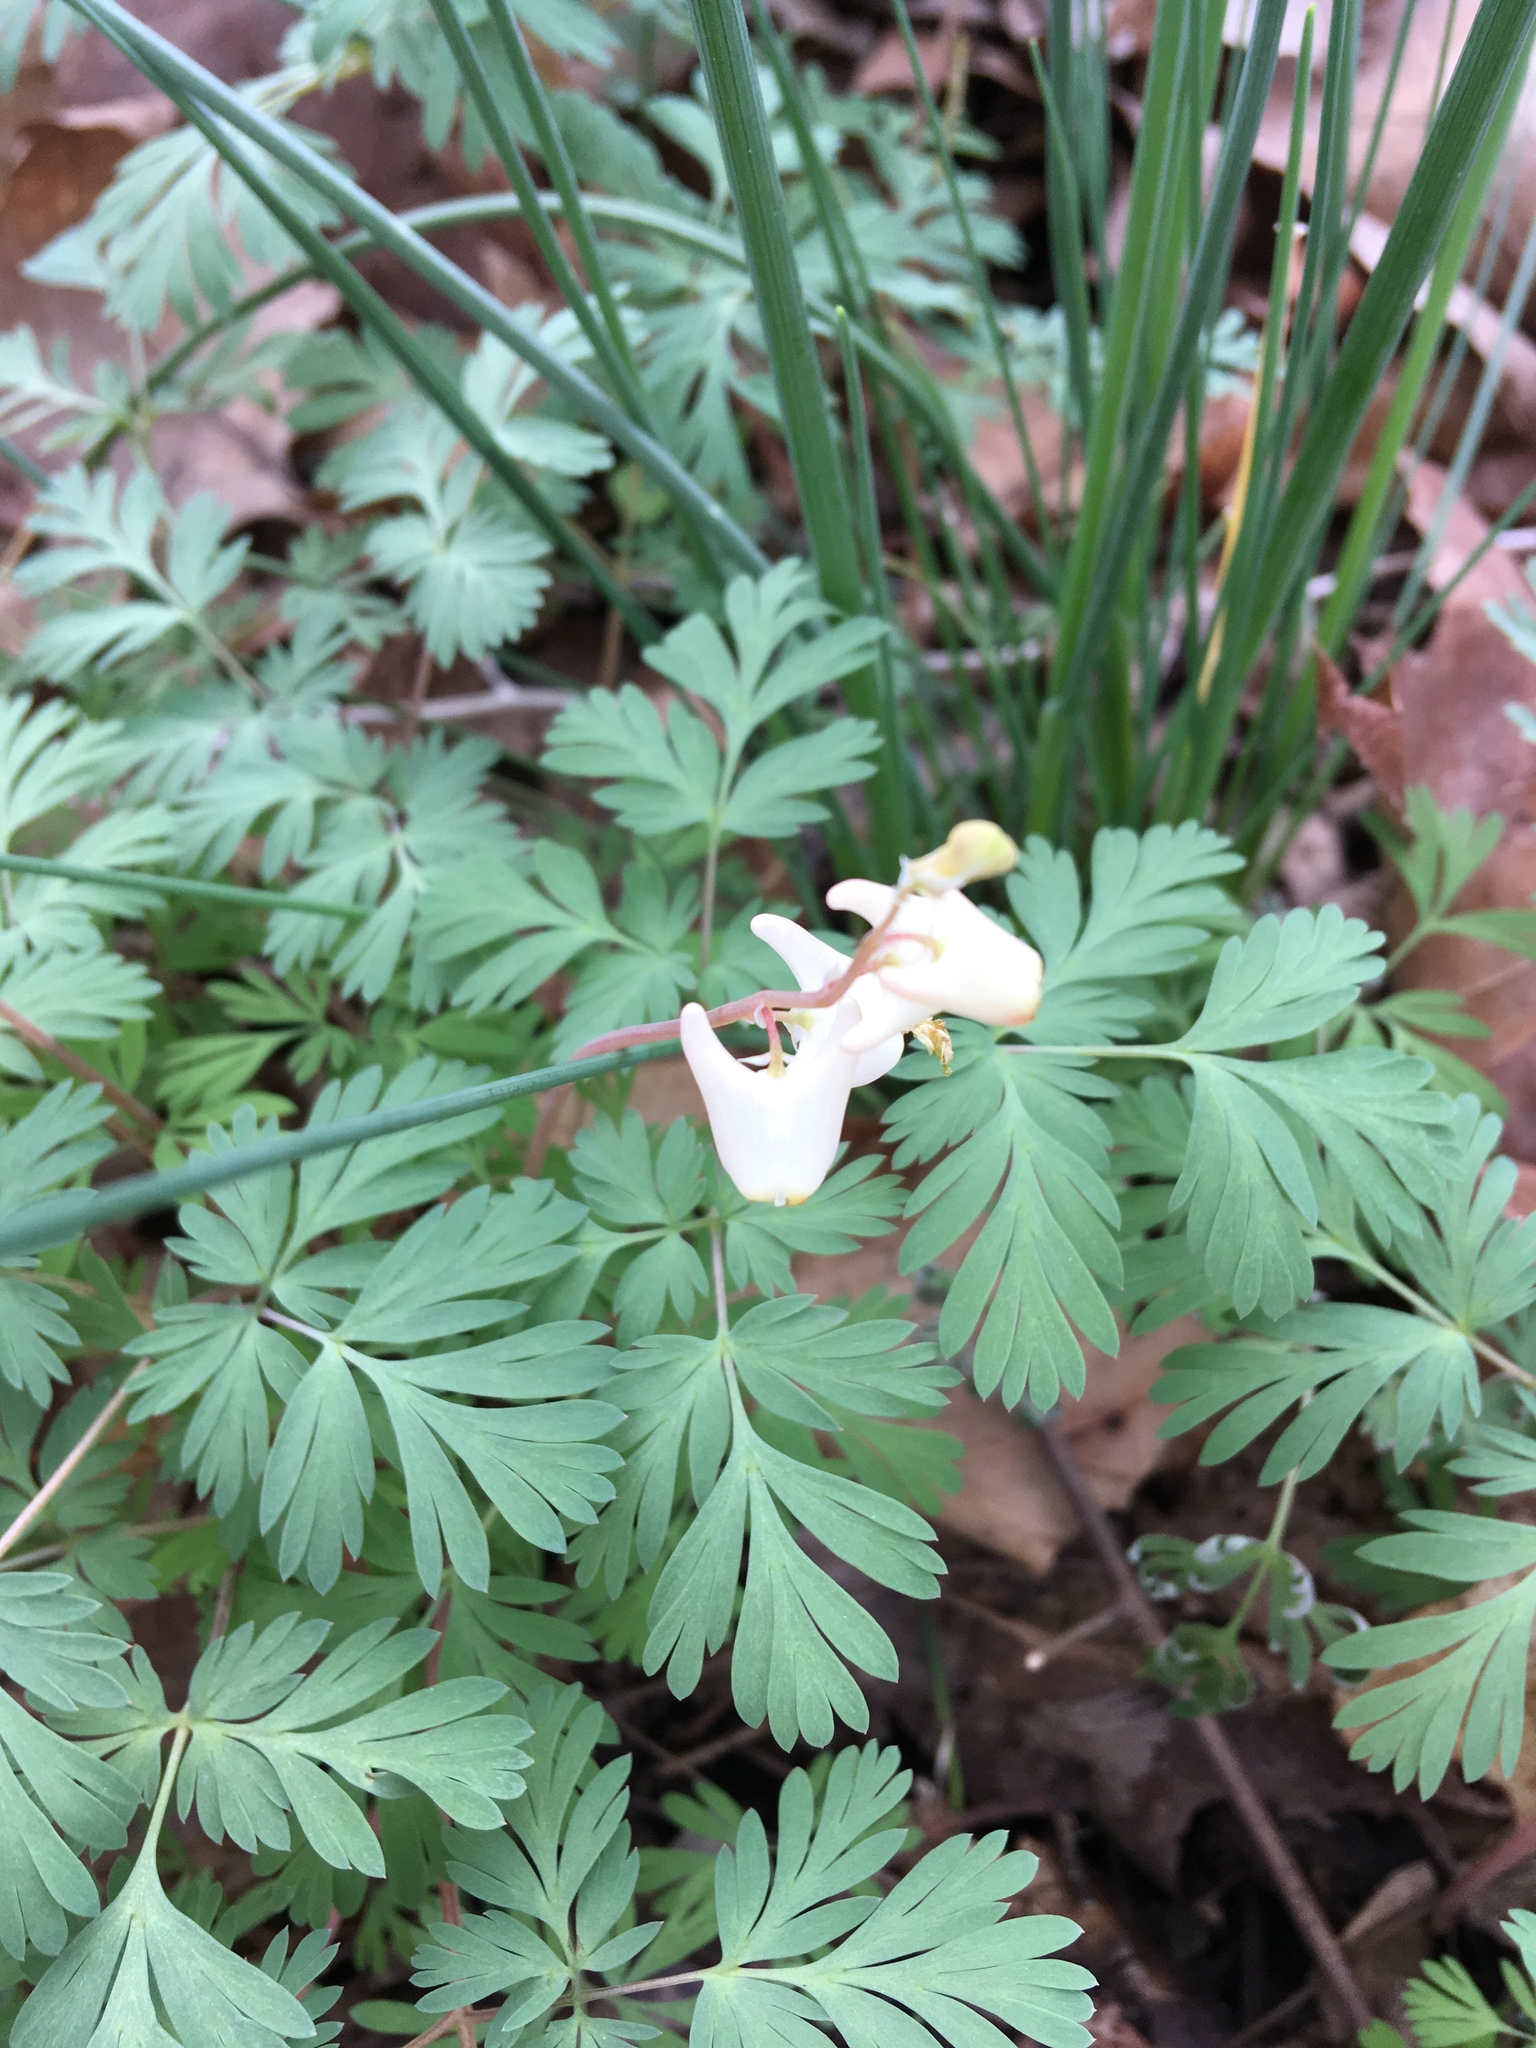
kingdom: Plantae
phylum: Tracheophyta
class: Magnoliopsida
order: Ranunculales
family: Papaveraceae
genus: Dicentra
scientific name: Dicentra cucullaria
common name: Dutchman's breeches
